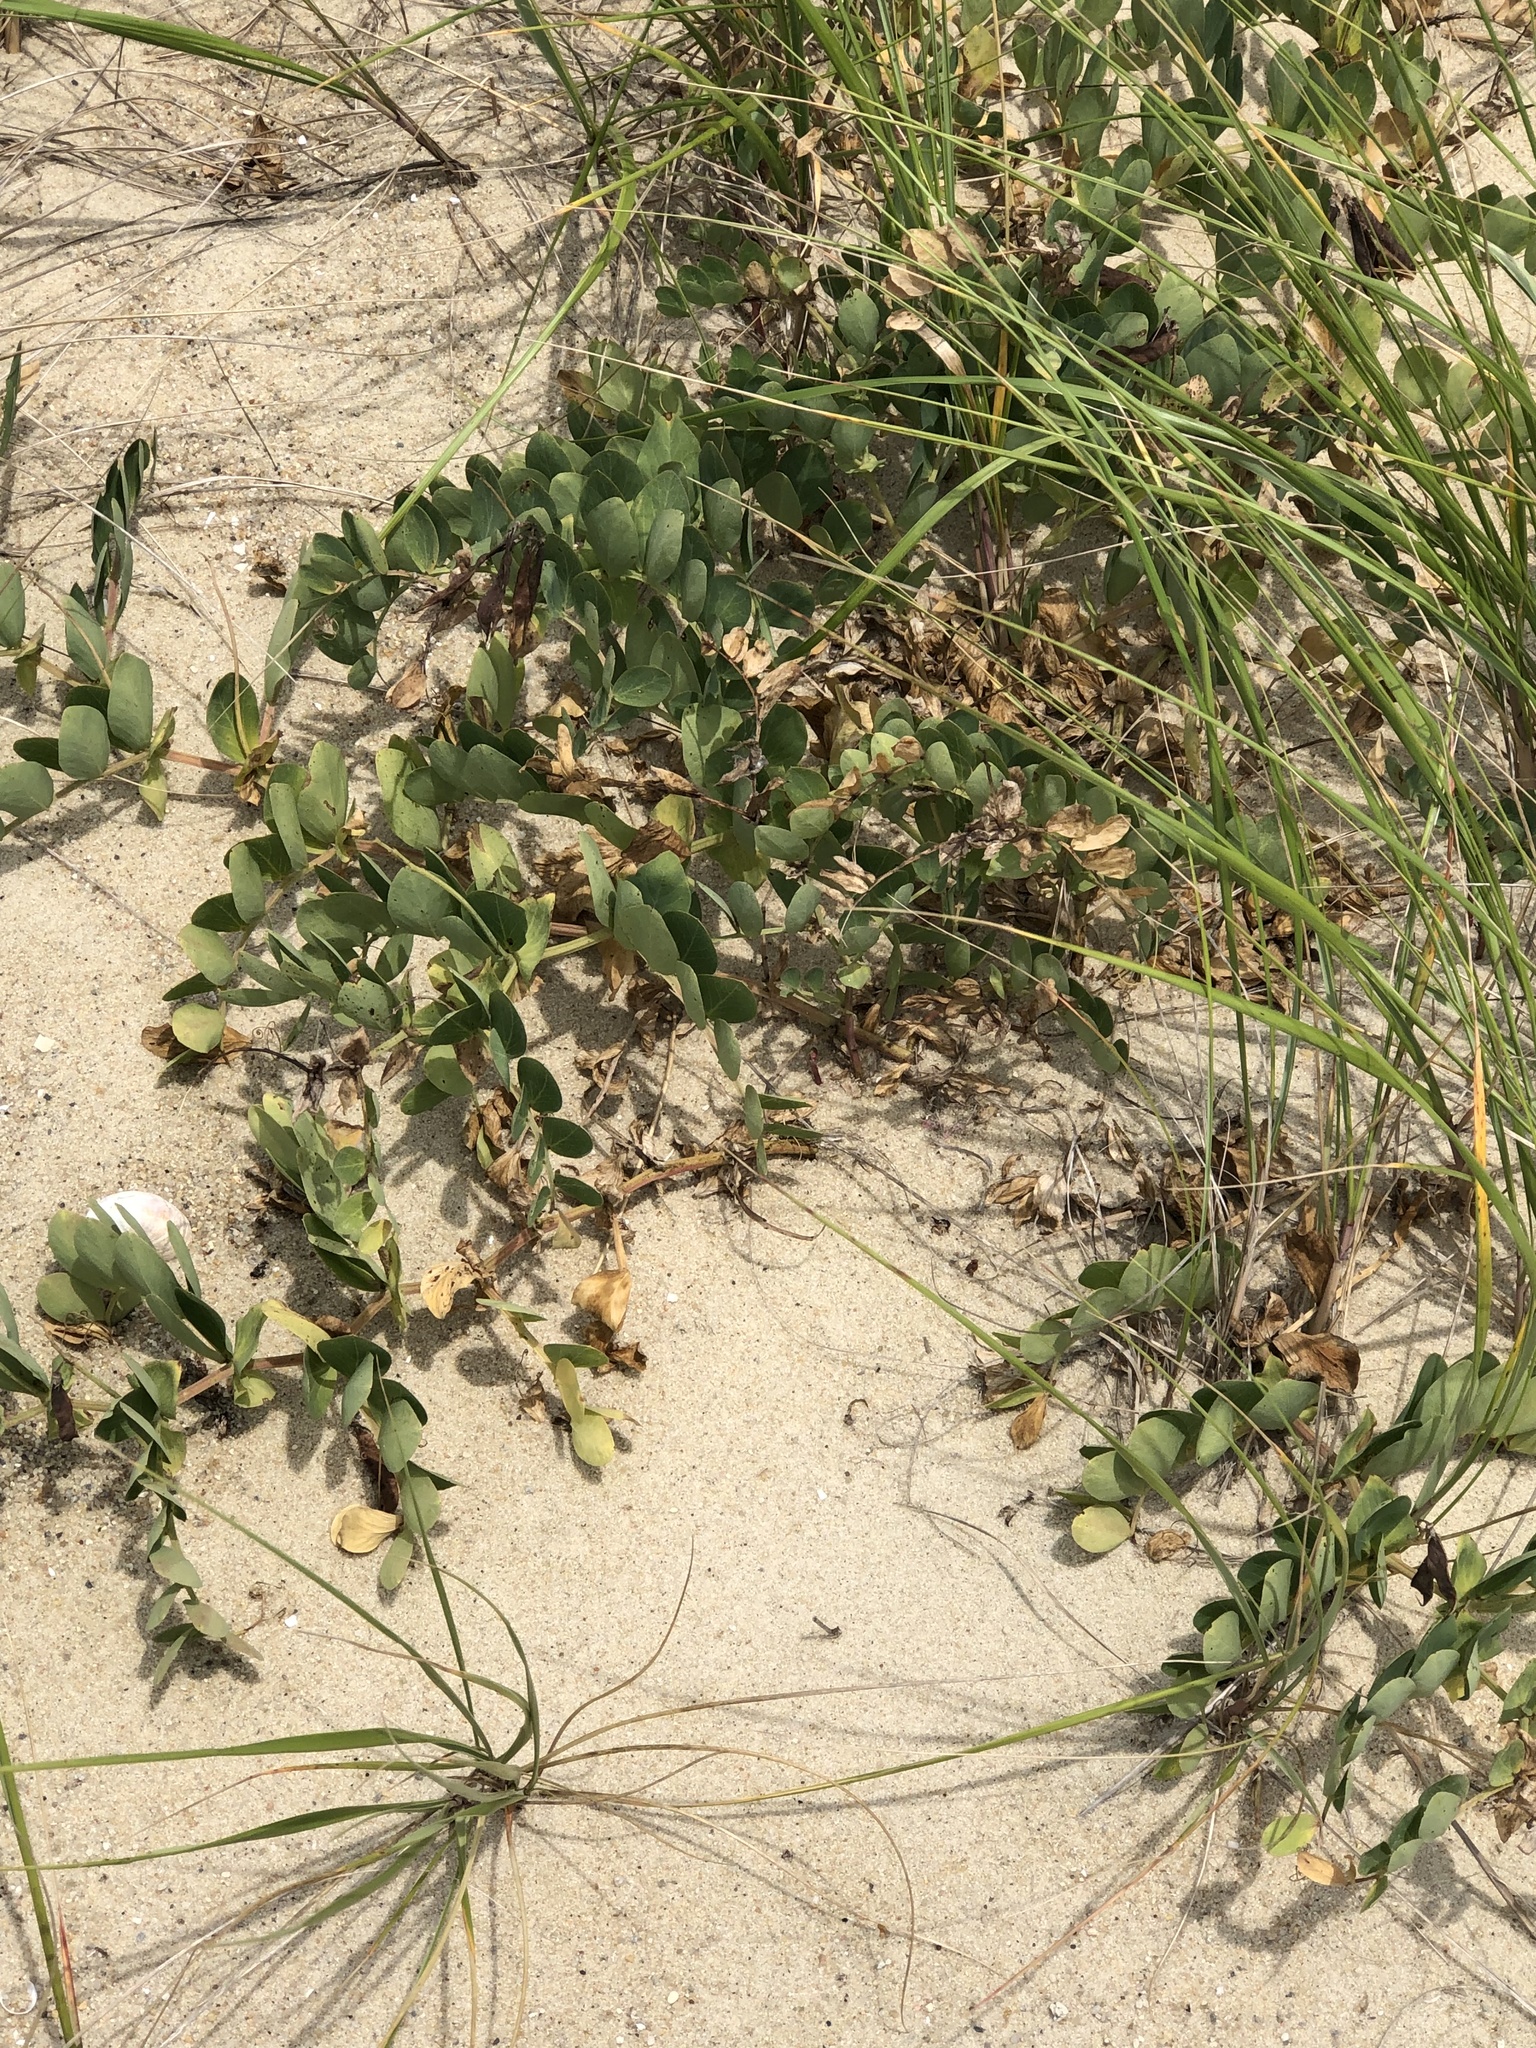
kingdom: Plantae
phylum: Tracheophyta
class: Magnoliopsida
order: Fabales
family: Fabaceae
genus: Lathyrus
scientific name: Lathyrus japonicus
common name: Sea pea
